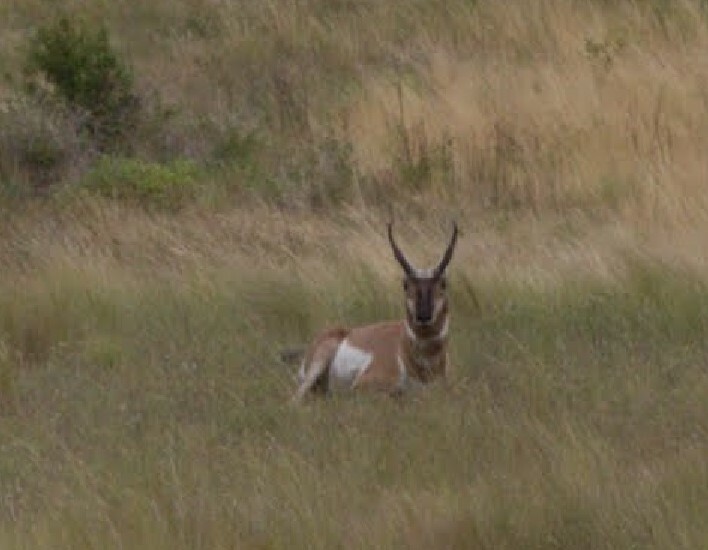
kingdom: Animalia
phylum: Chordata
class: Mammalia
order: Artiodactyla
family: Antilocapridae
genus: Antilocapra
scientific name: Antilocapra americana
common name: Pronghorn
